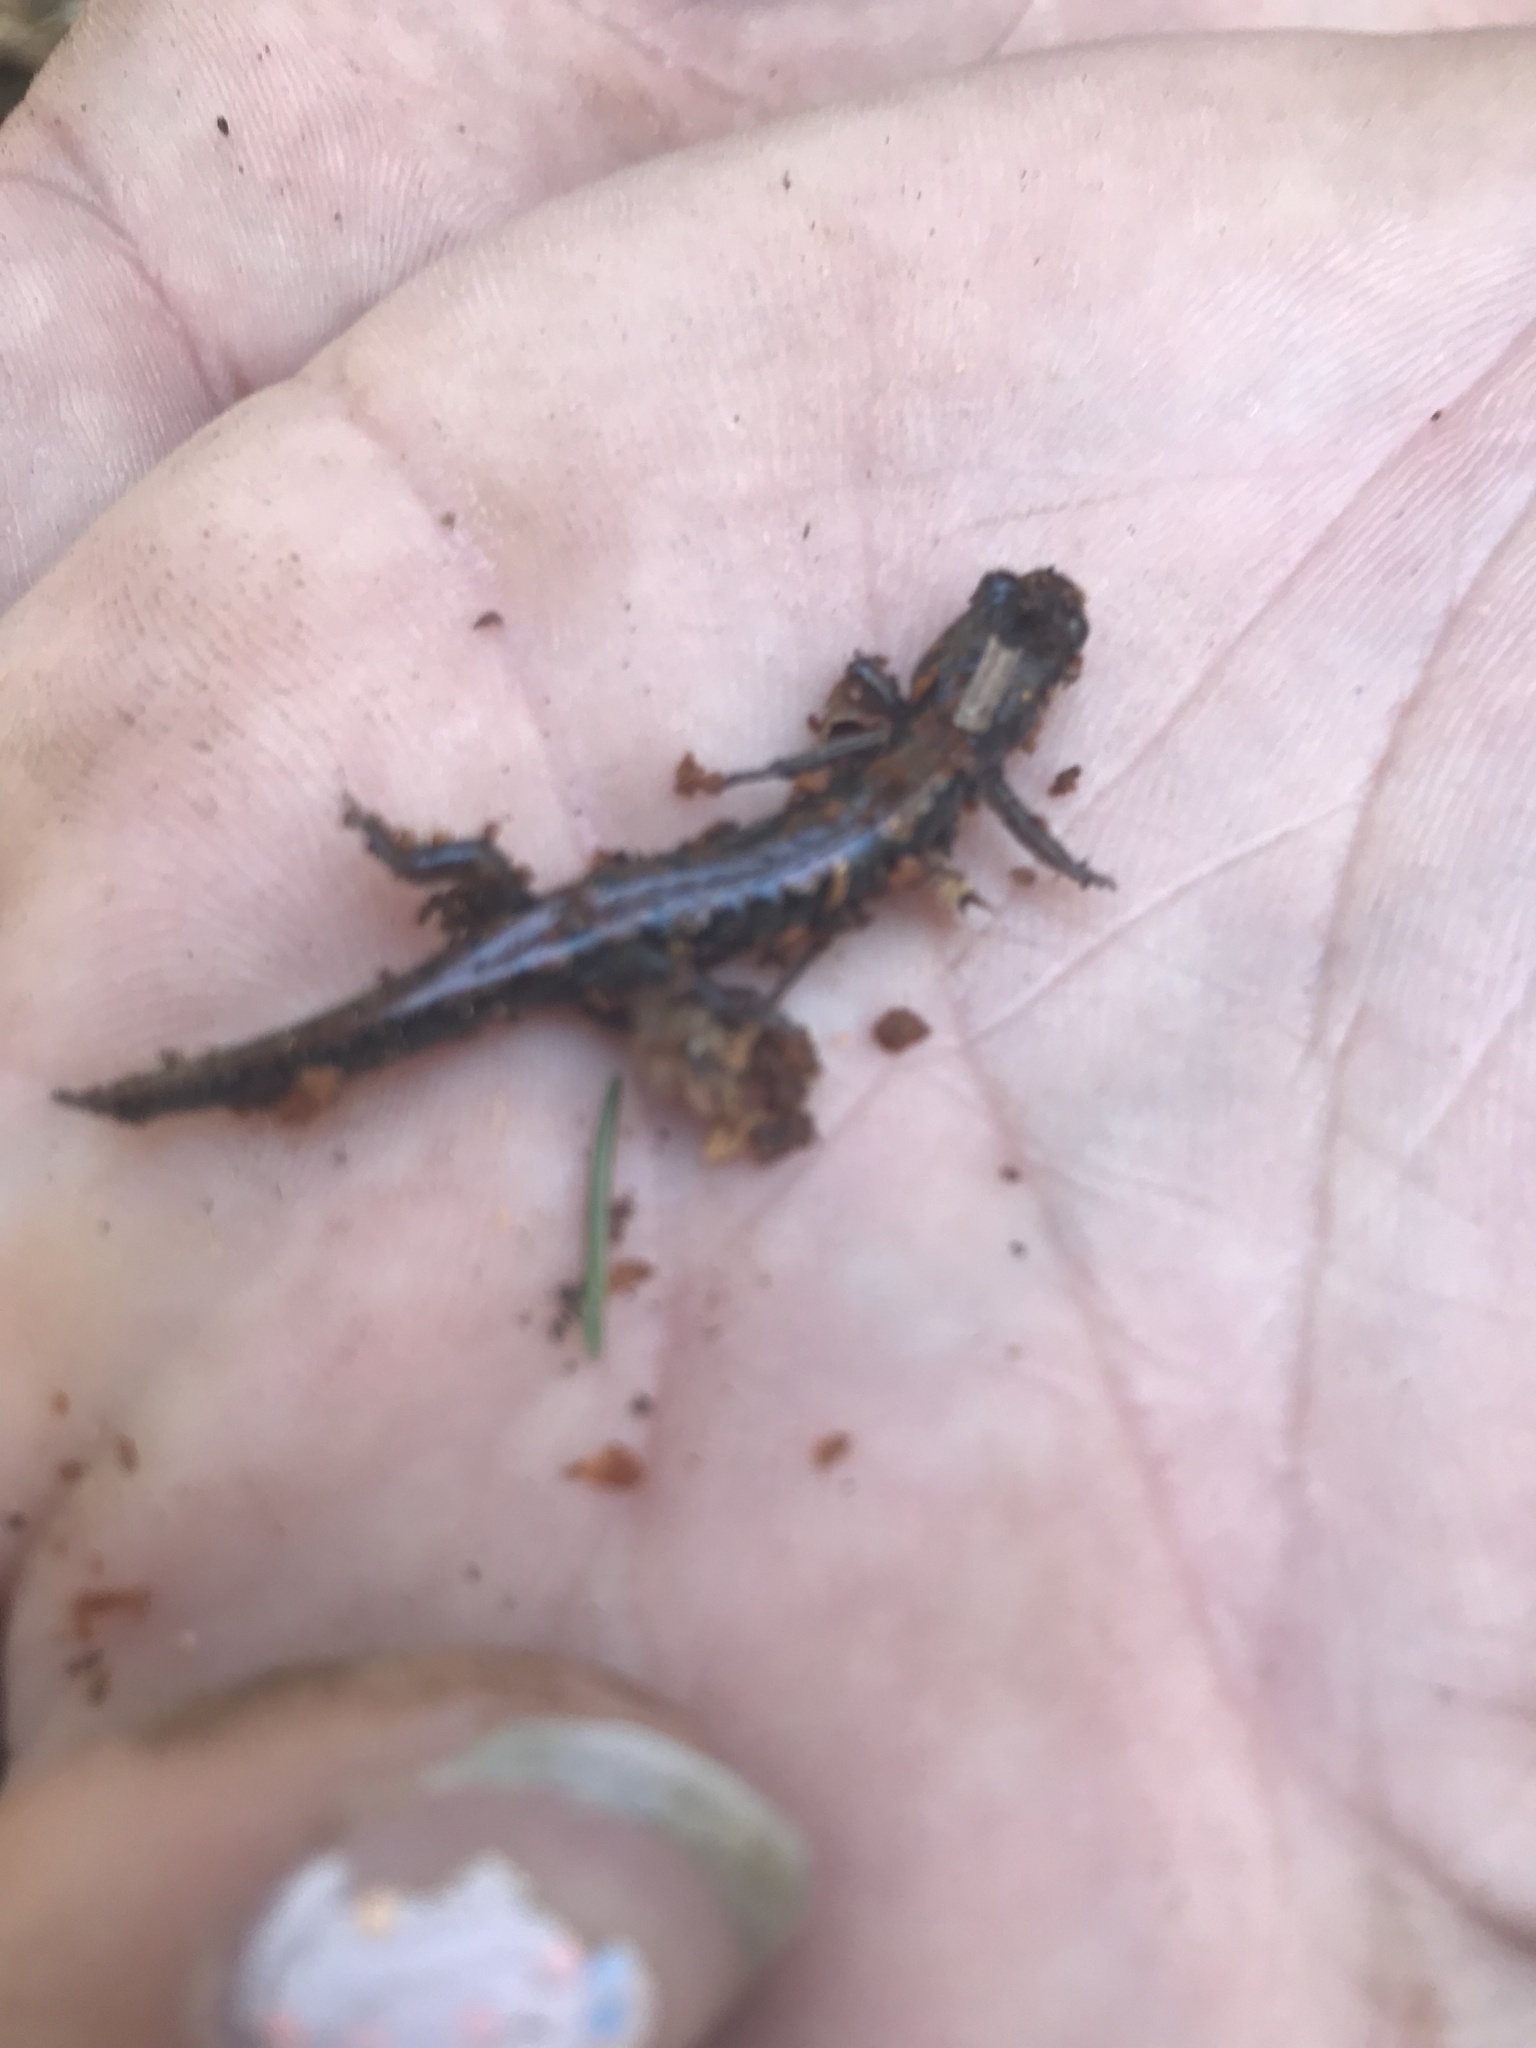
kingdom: Animalia
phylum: Chordata
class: Amphibia
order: Caudata
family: Plethodontidae
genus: Desmognathus
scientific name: Desmognathus adatsihi
